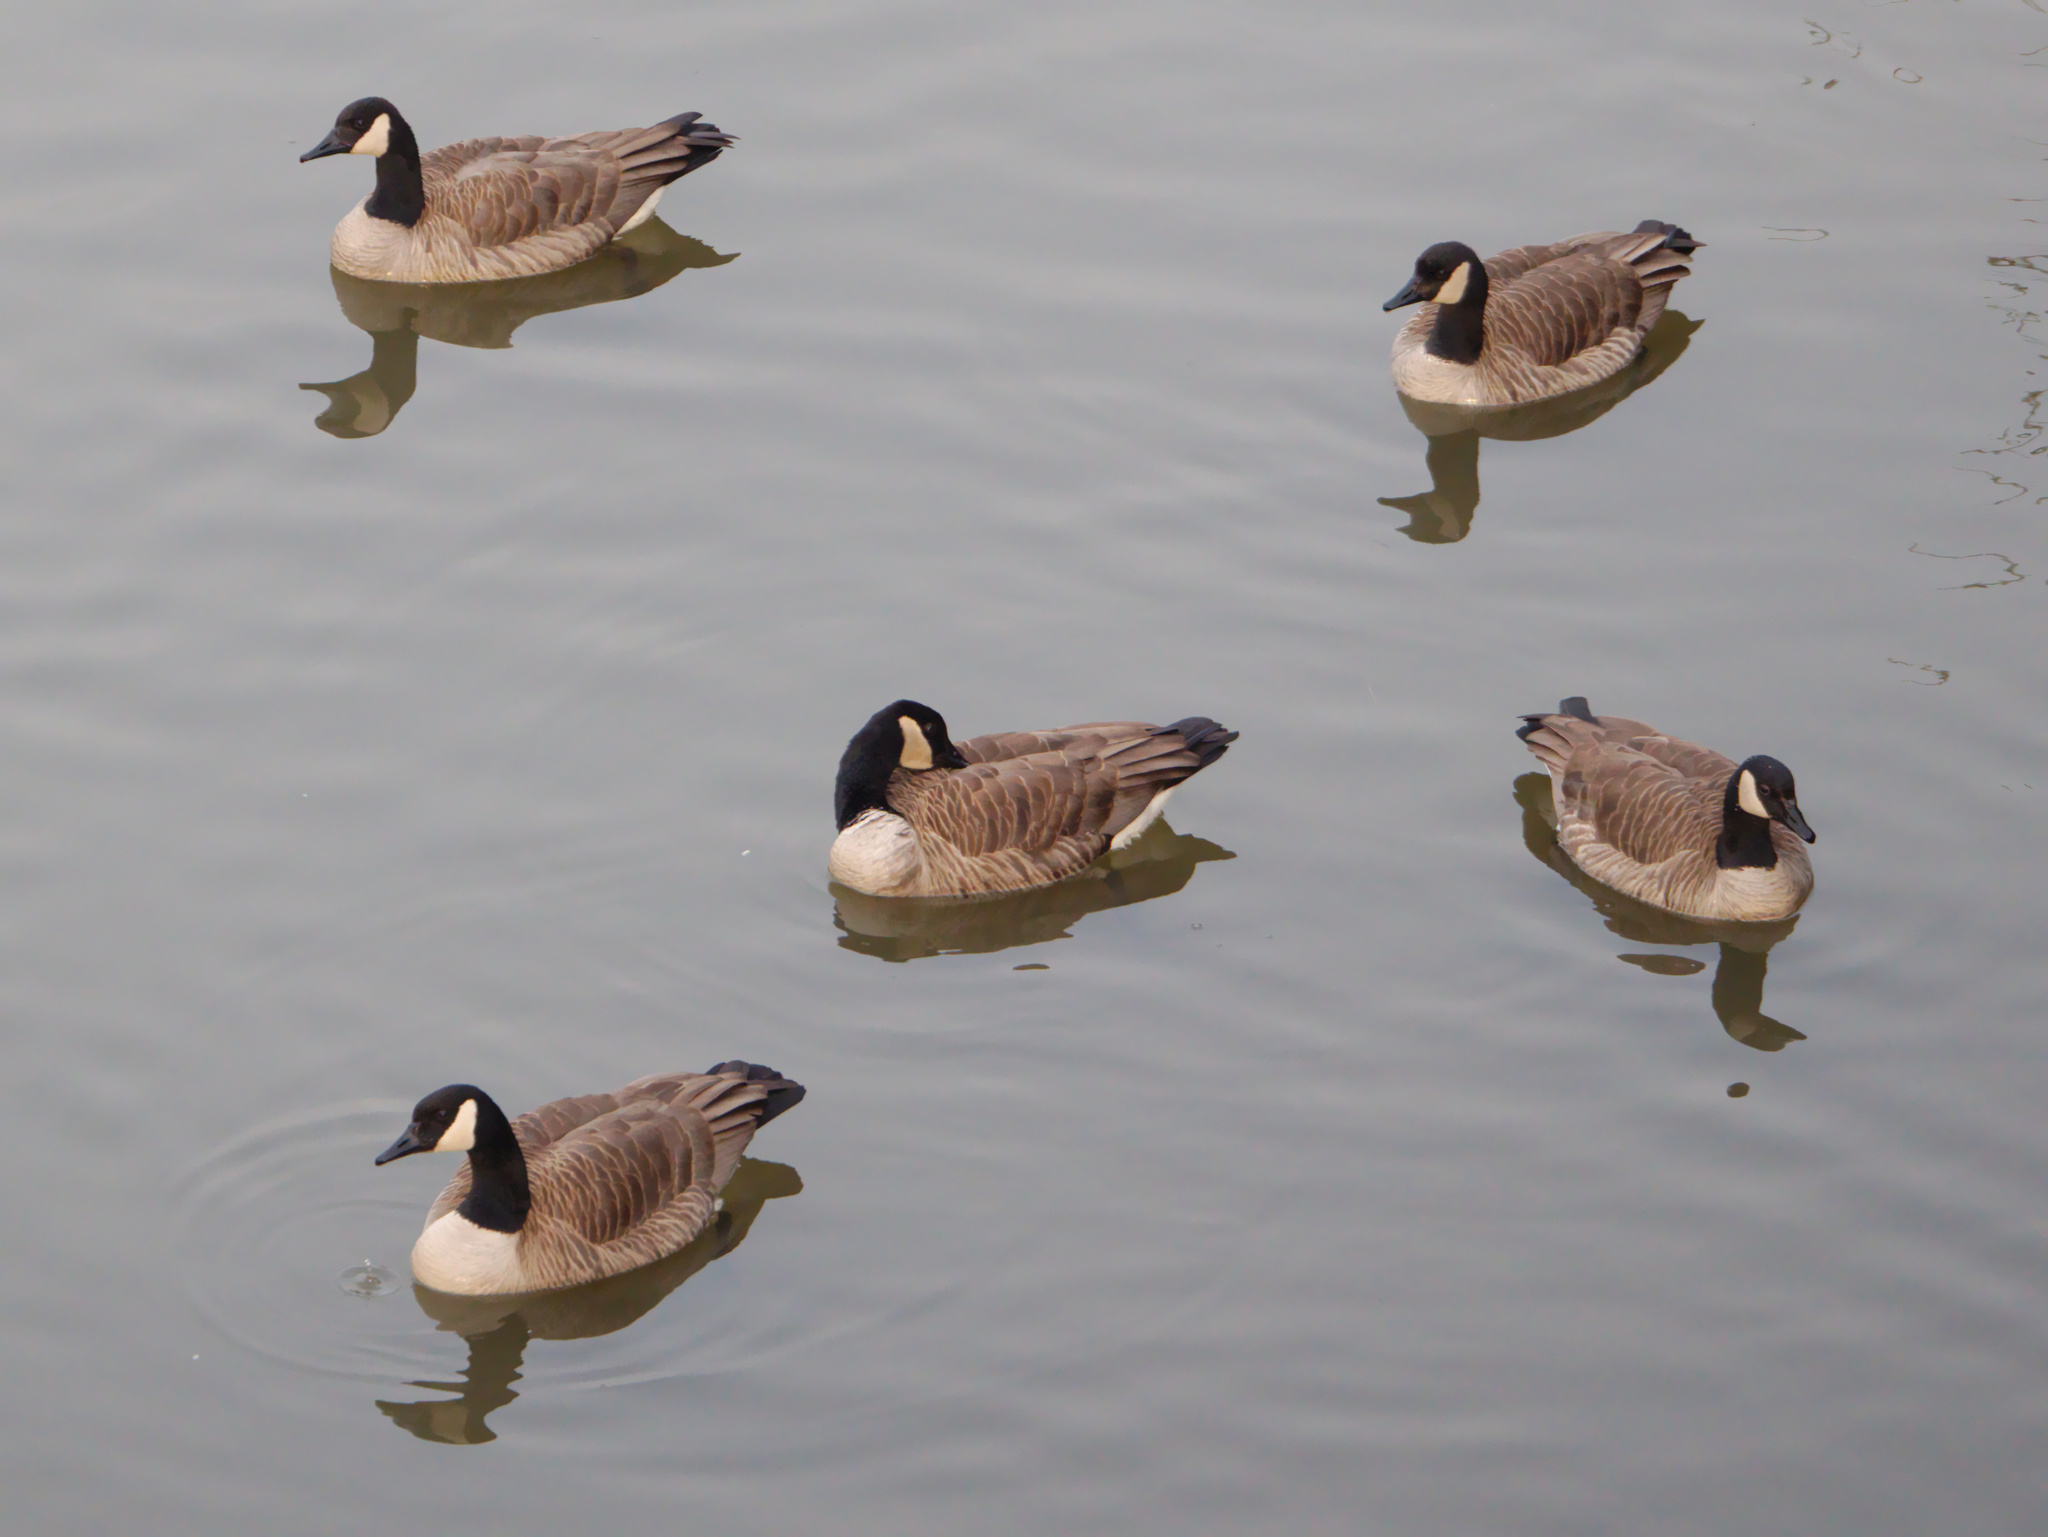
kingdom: Animalia
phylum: Chordata
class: Aves
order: Anseriformes
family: Anatidae
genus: Branta
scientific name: Branta canadensis
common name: Canada goose
